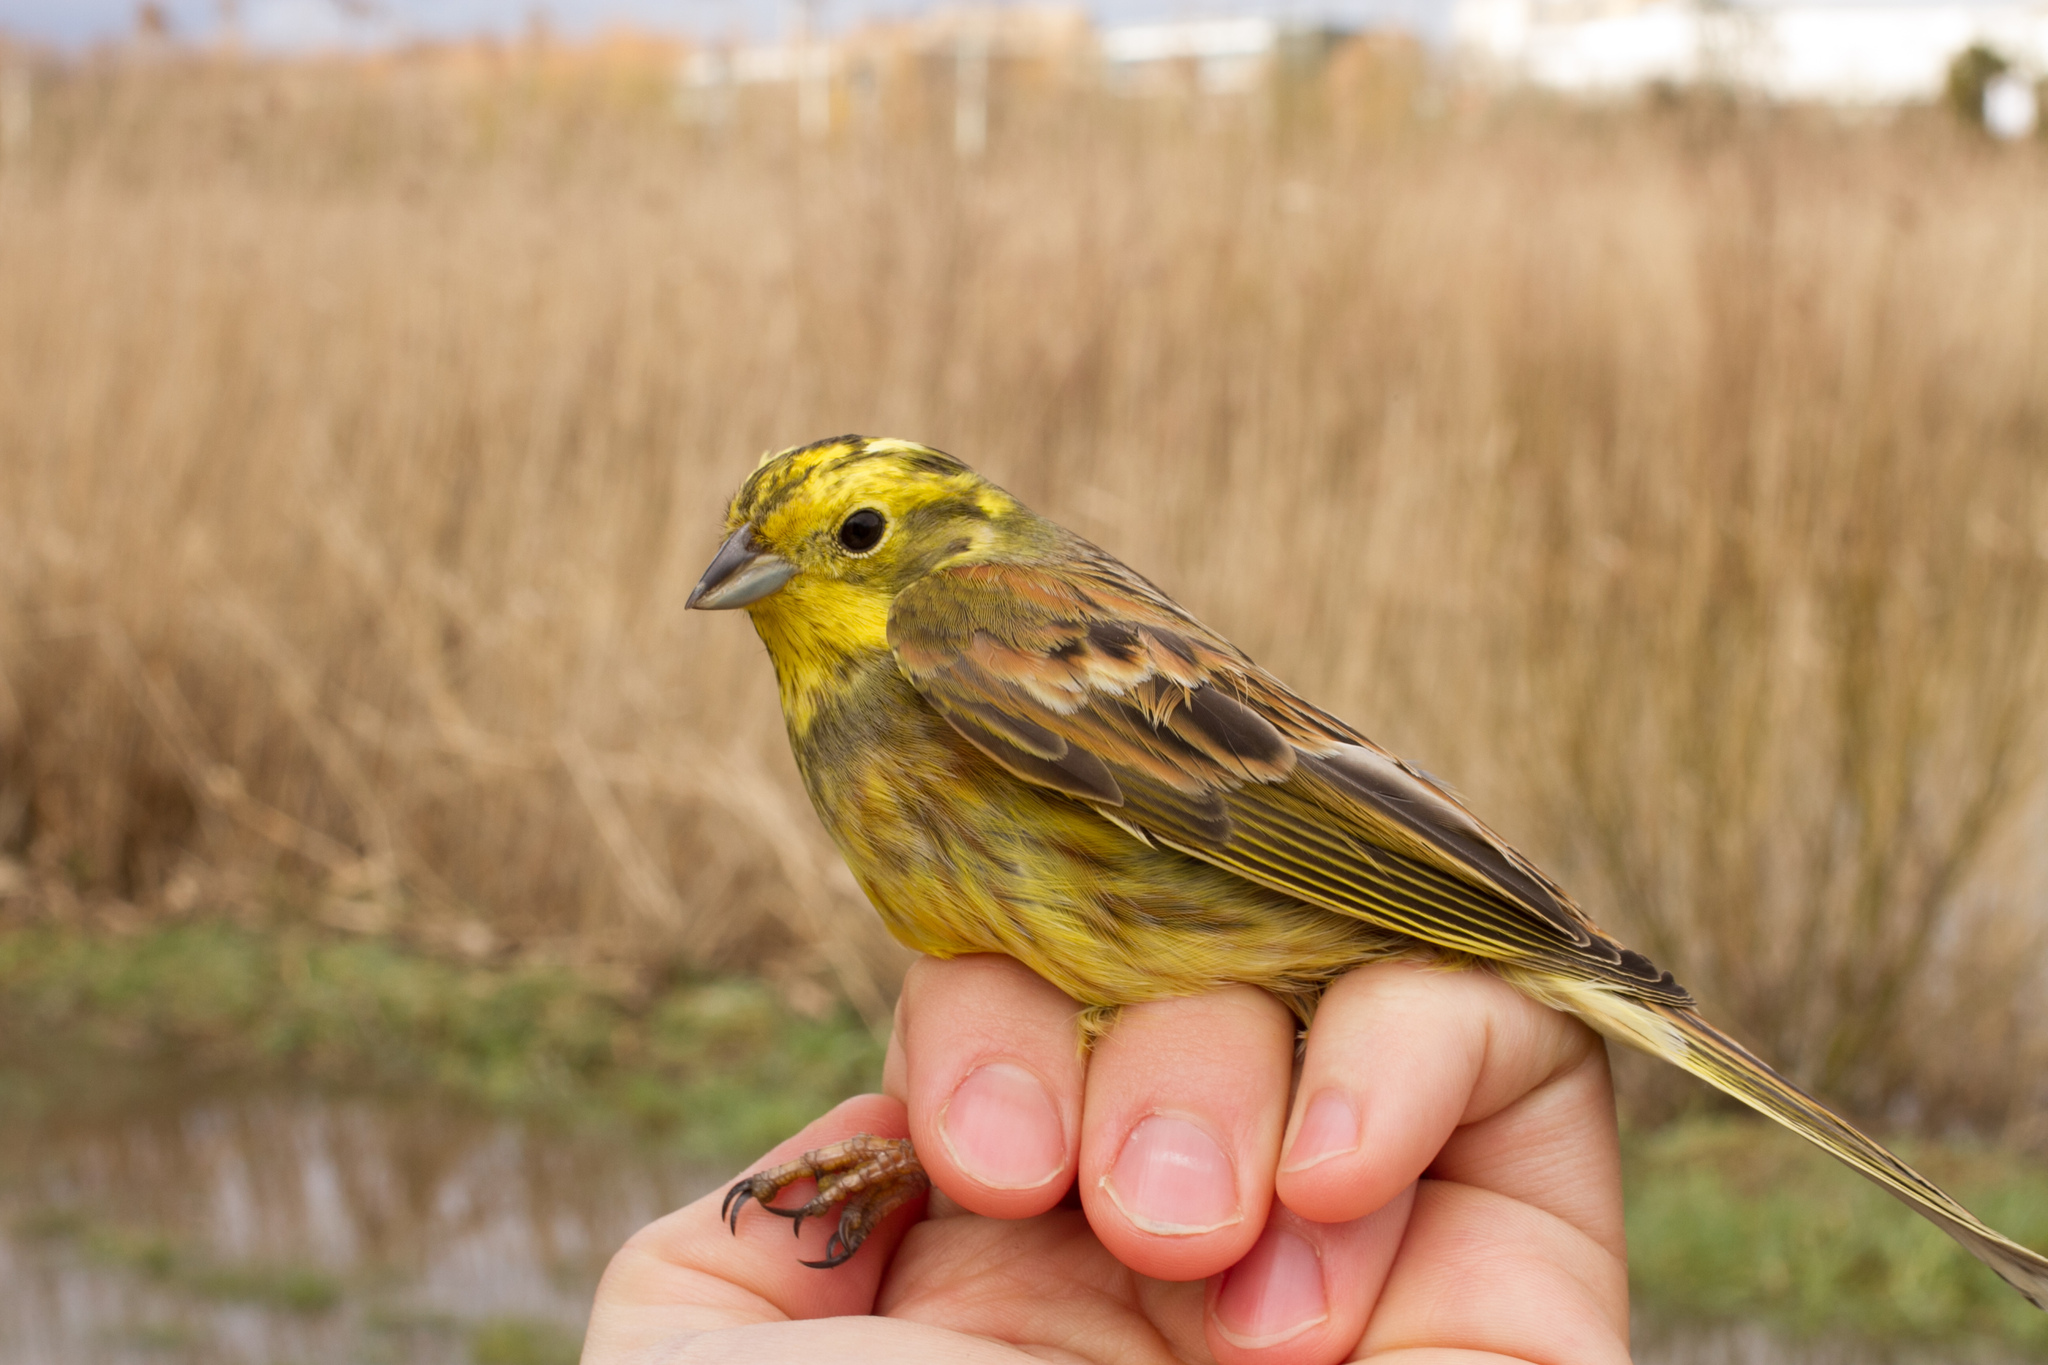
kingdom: Animalia
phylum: Chordata
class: Aves
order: Passeriformes
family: Emberizidae
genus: Emberiza
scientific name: Emberiza citrinella
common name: Yellowhammer
